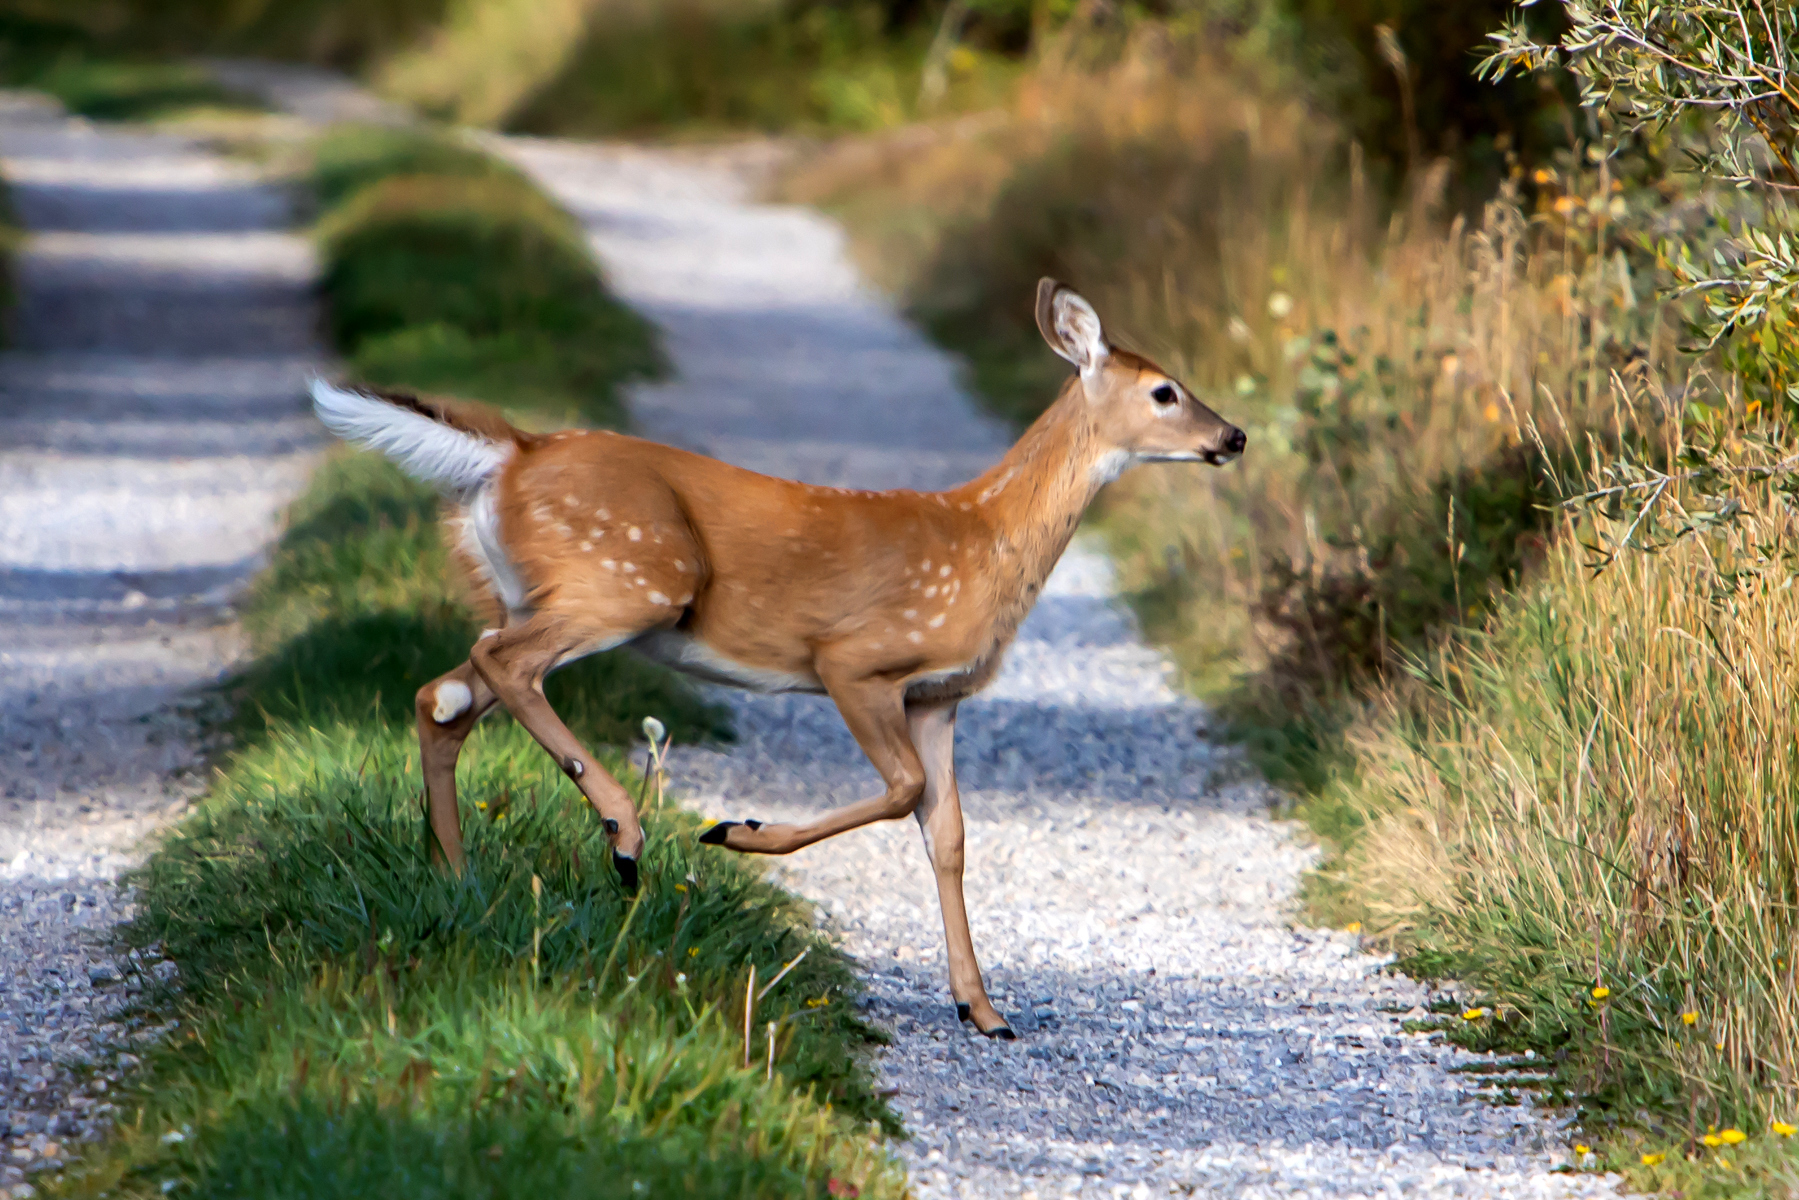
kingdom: Animalia
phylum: Chordata
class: Mammalia
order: Artiodactyla
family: Cervidae
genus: Odocoileus
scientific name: Odocoileus virginianus
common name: White-tailed deer
